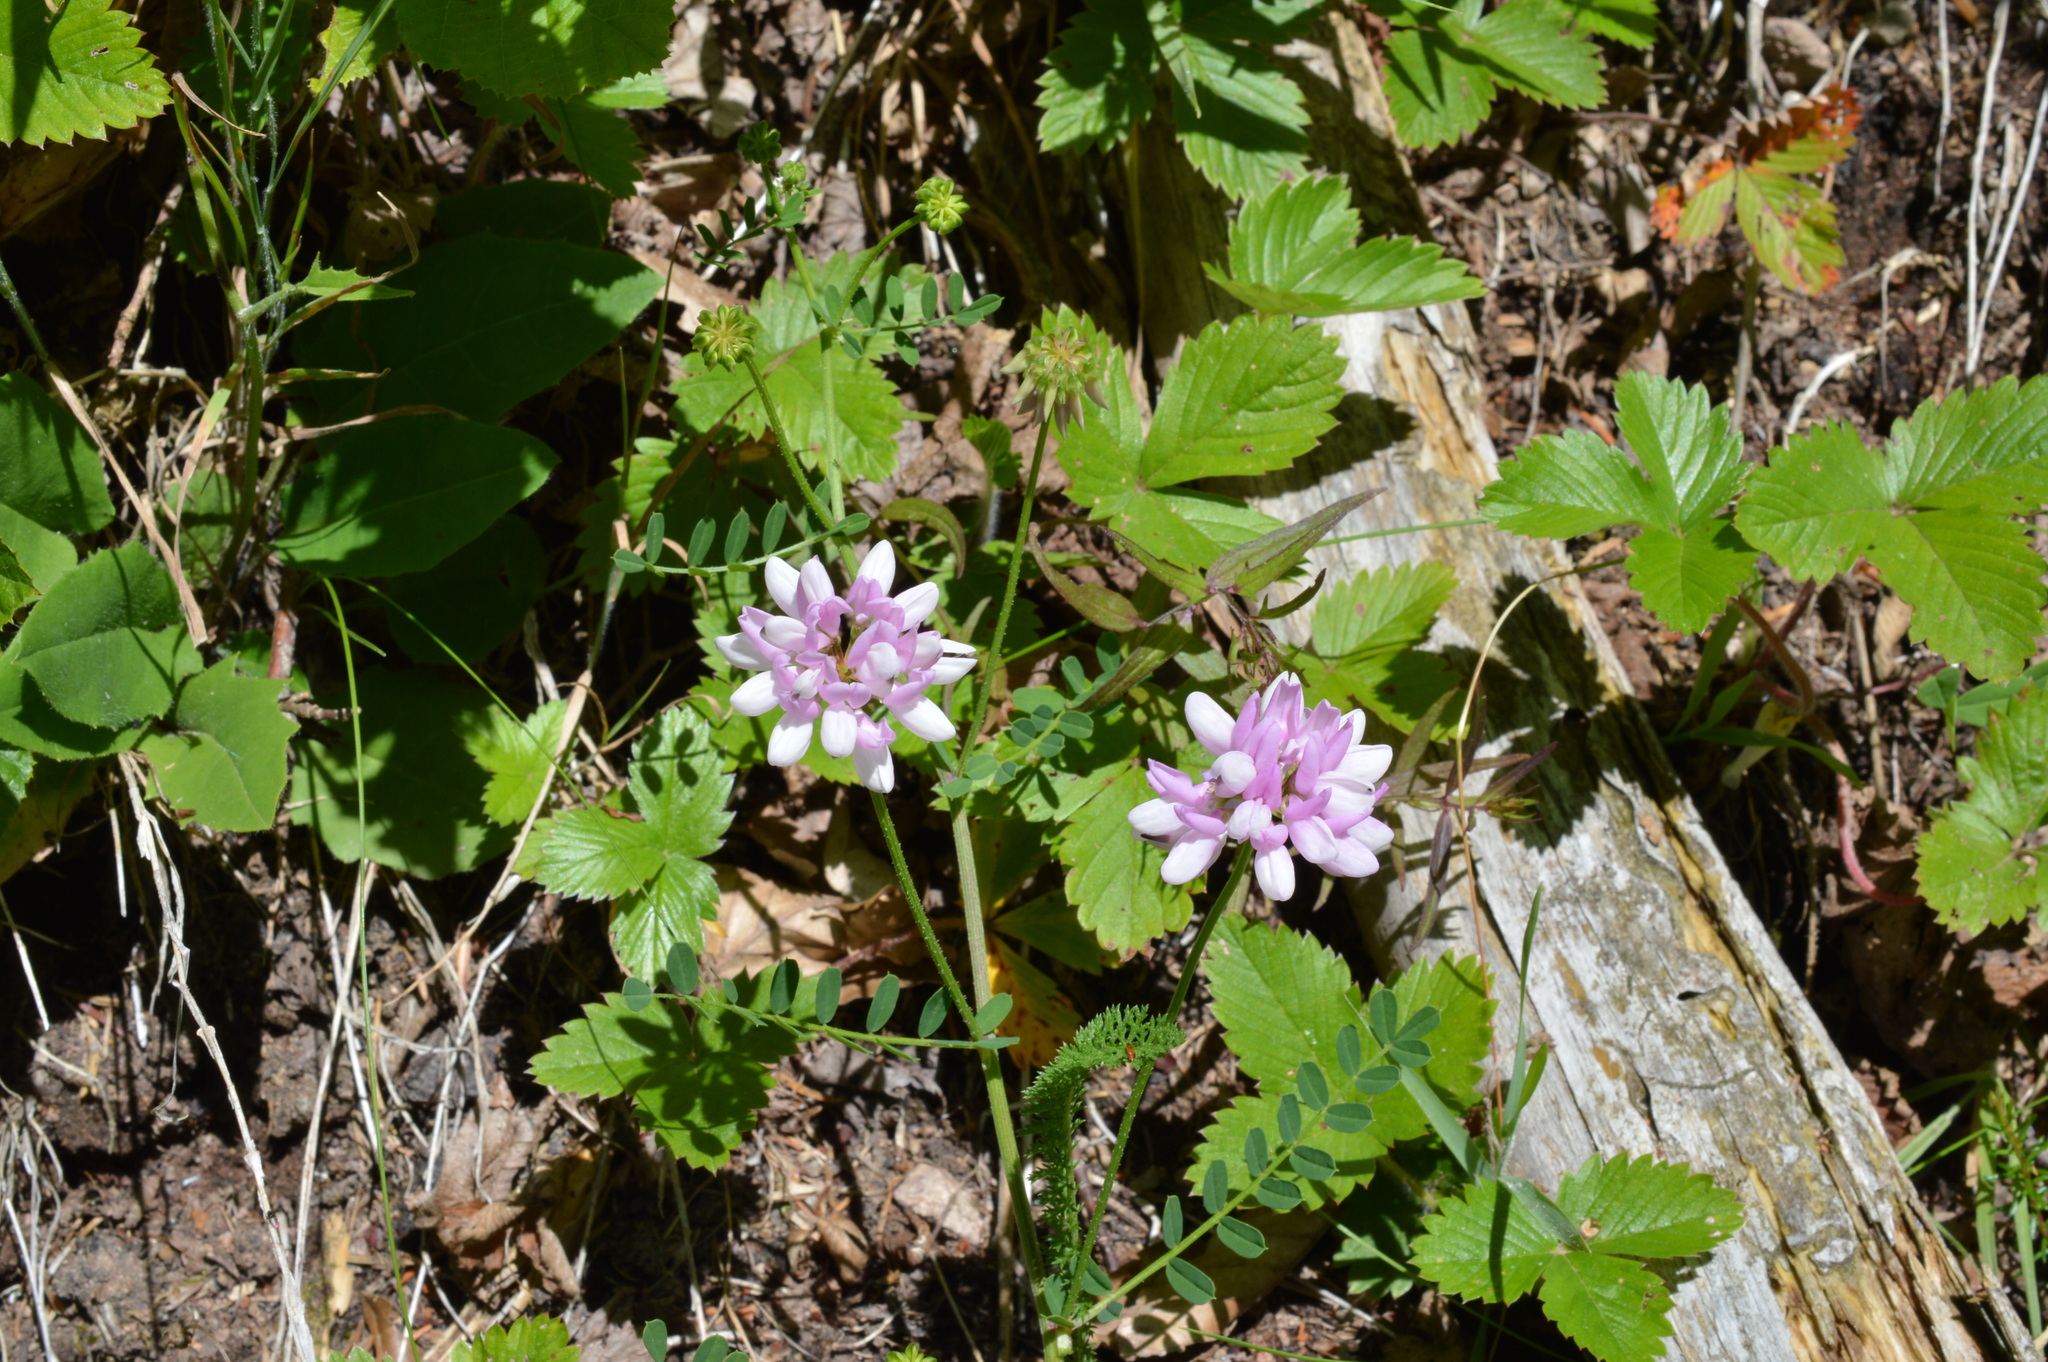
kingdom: Plantae
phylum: Tracheophyta
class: Magnoliopsida
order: Fabales
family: Fabaceae
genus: Coronilla
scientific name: Coronilla varia
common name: Crownvetch
